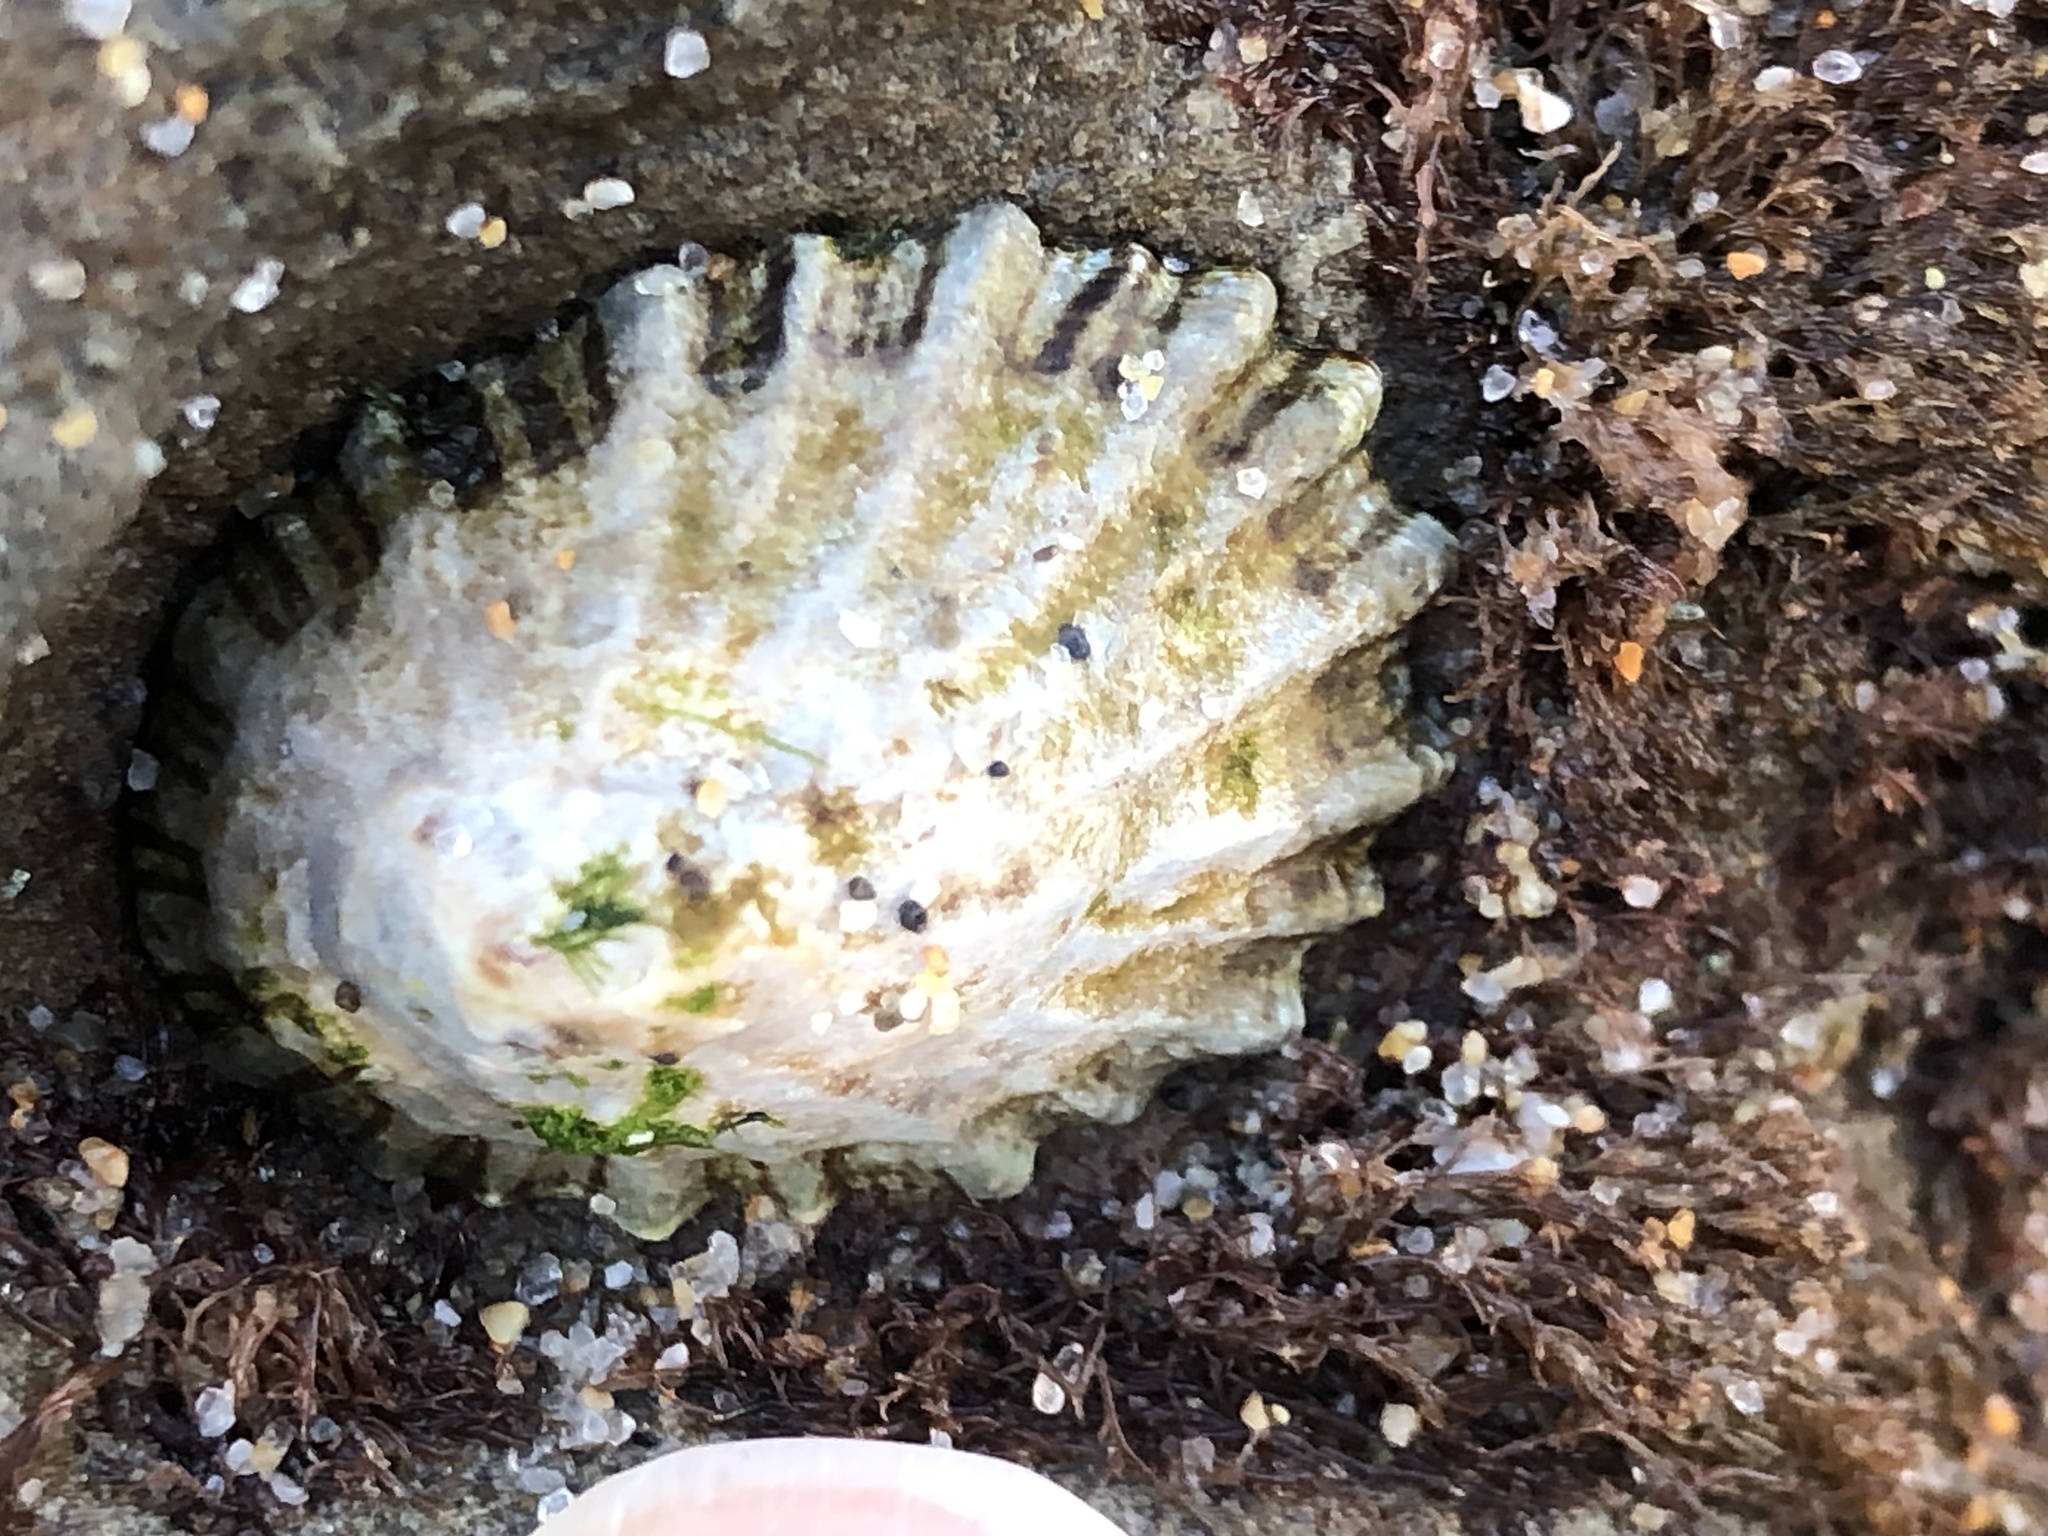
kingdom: Animalia
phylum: Mollusca
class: Gastropoda
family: Lottiidae
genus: Lottia
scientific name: Lottia scabra
